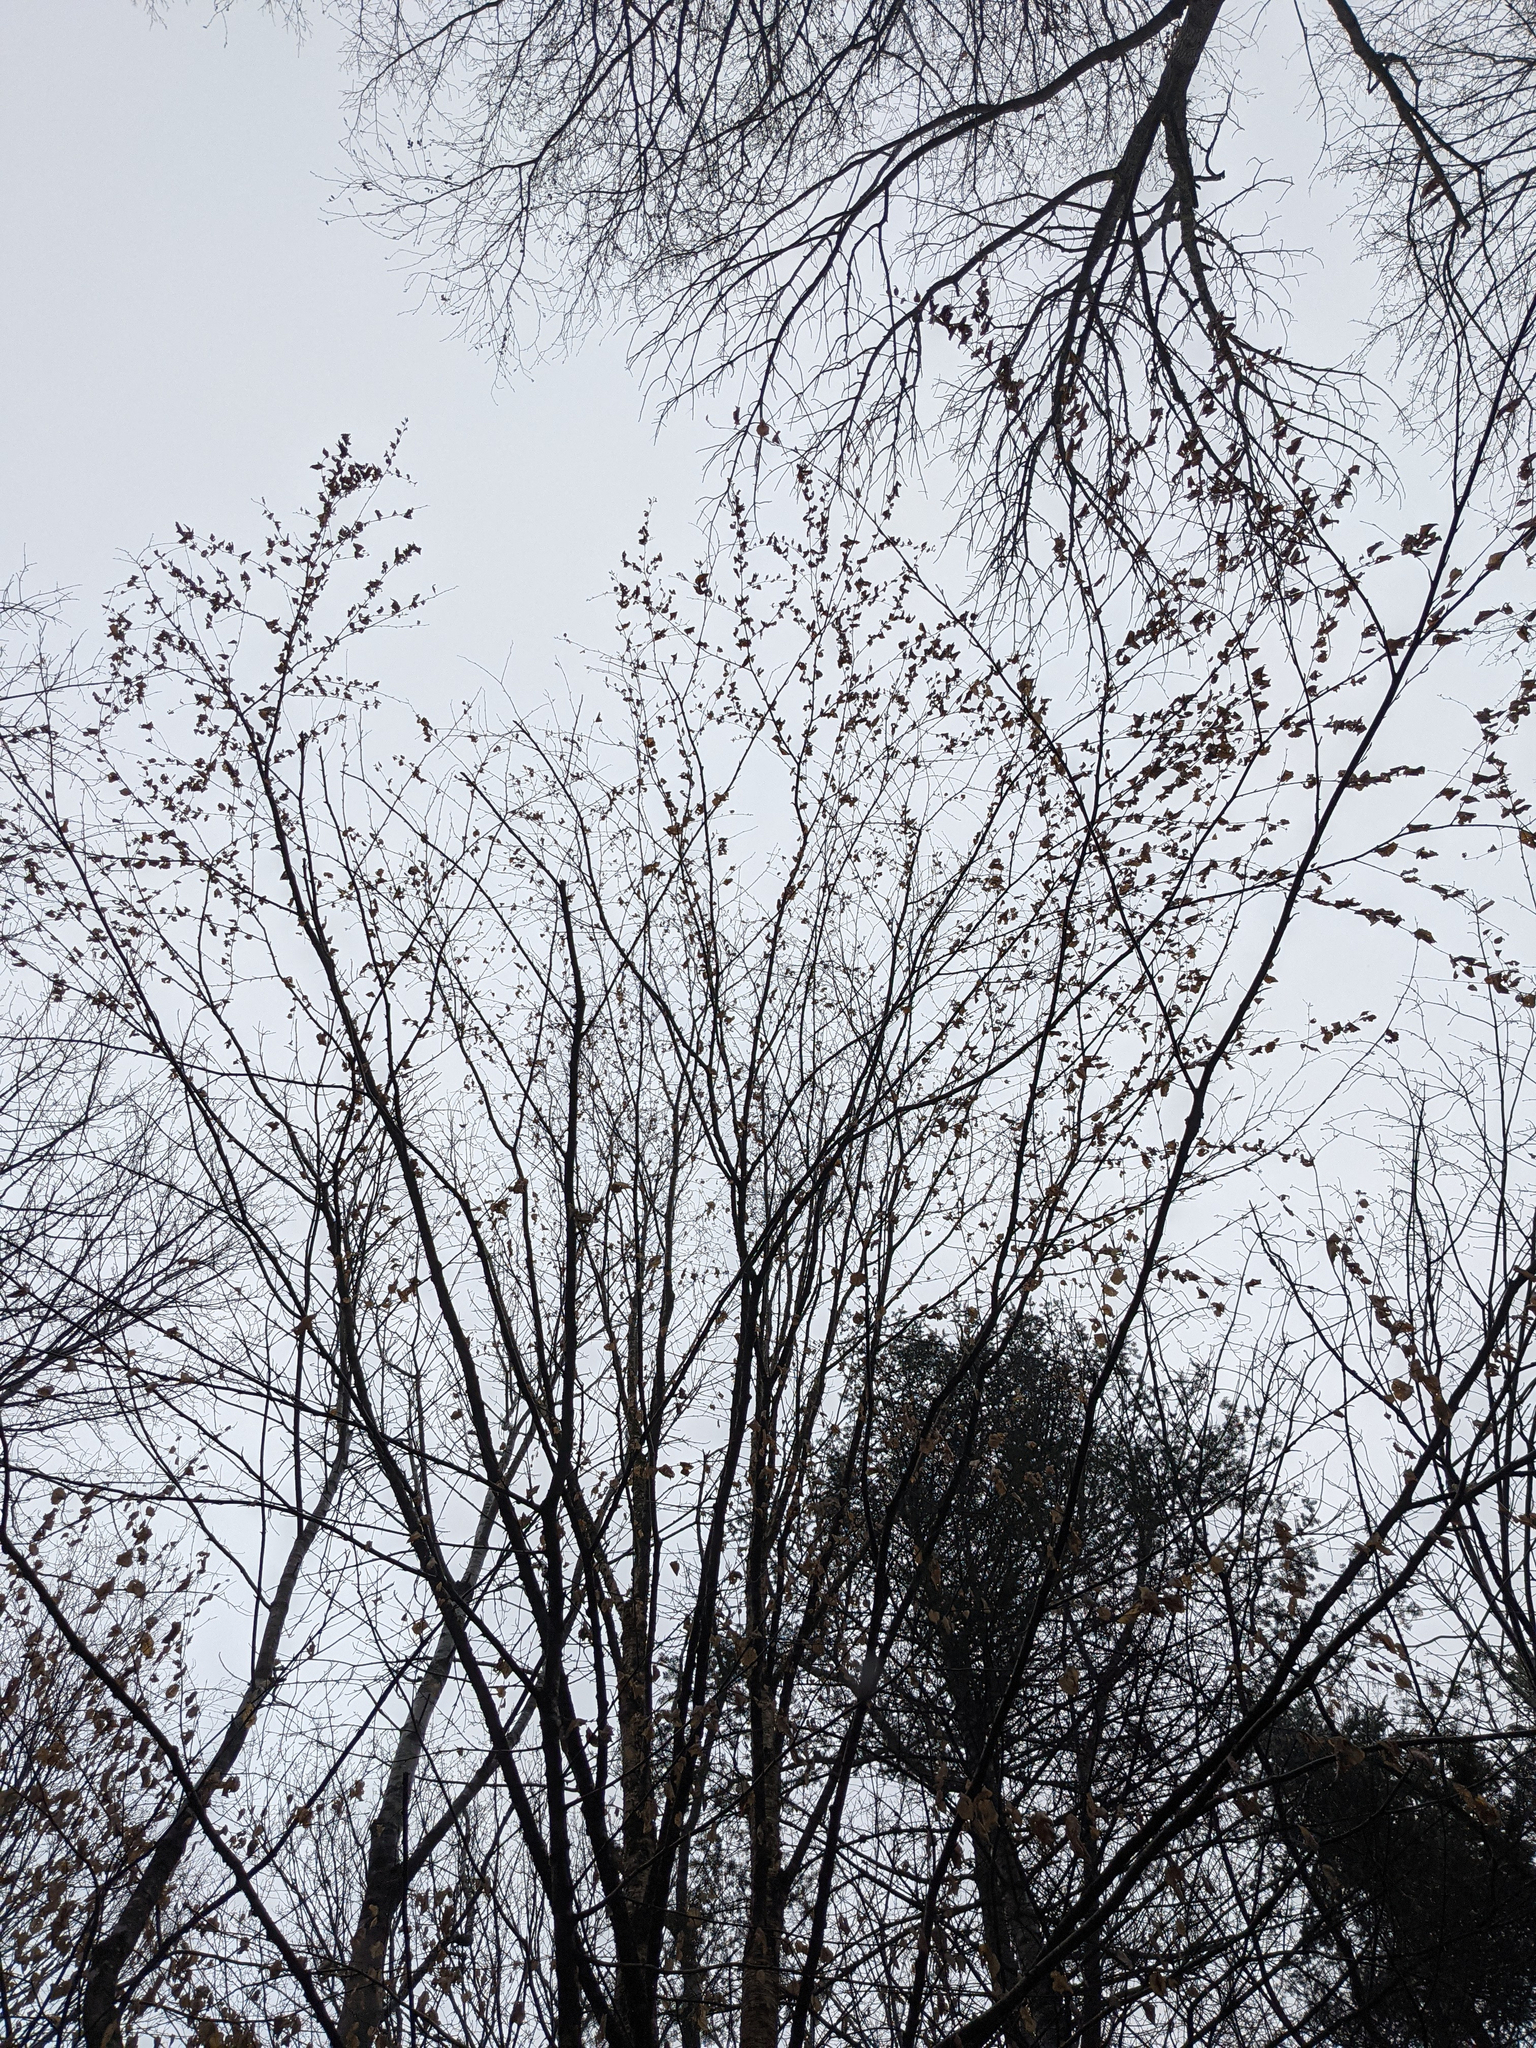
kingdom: Plantae
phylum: Tracheophyta
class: Magnoliopsida
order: Fagales
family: Betulaceae
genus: Betula
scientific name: Betula alleghaniensis
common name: Yellow birch
